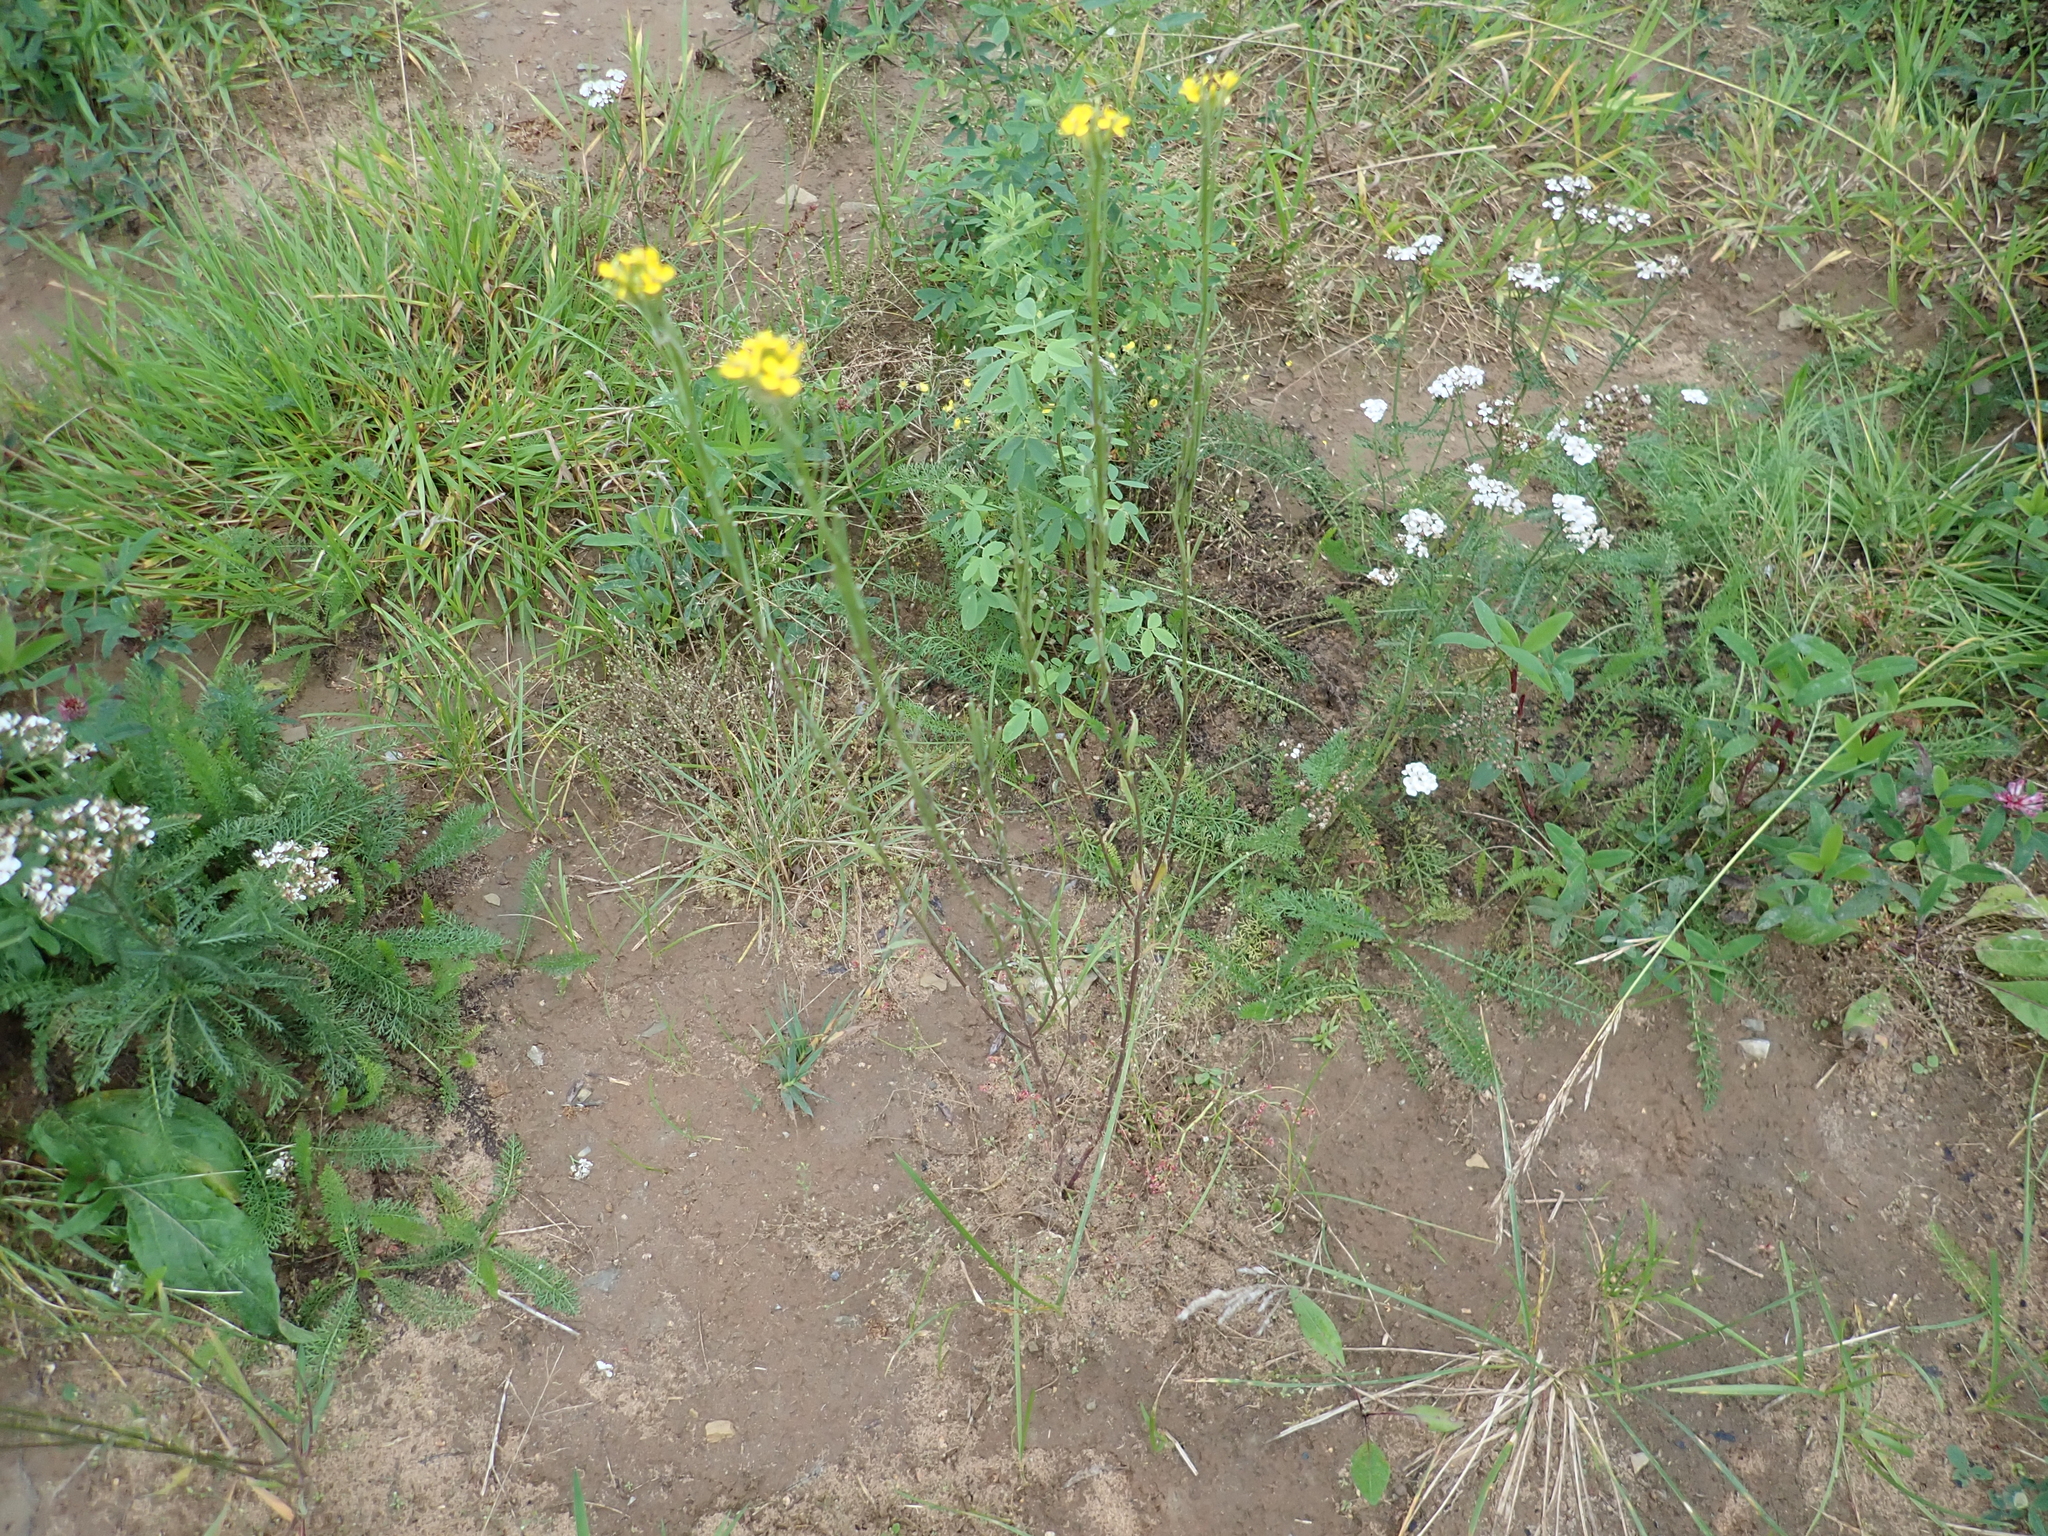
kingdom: Plantae
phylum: Tracheophyta
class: Magnoliopsida
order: Brassicales
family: Brassicaceae
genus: Erysimum
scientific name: Erysimum hieraciifolium
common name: European wallflower
